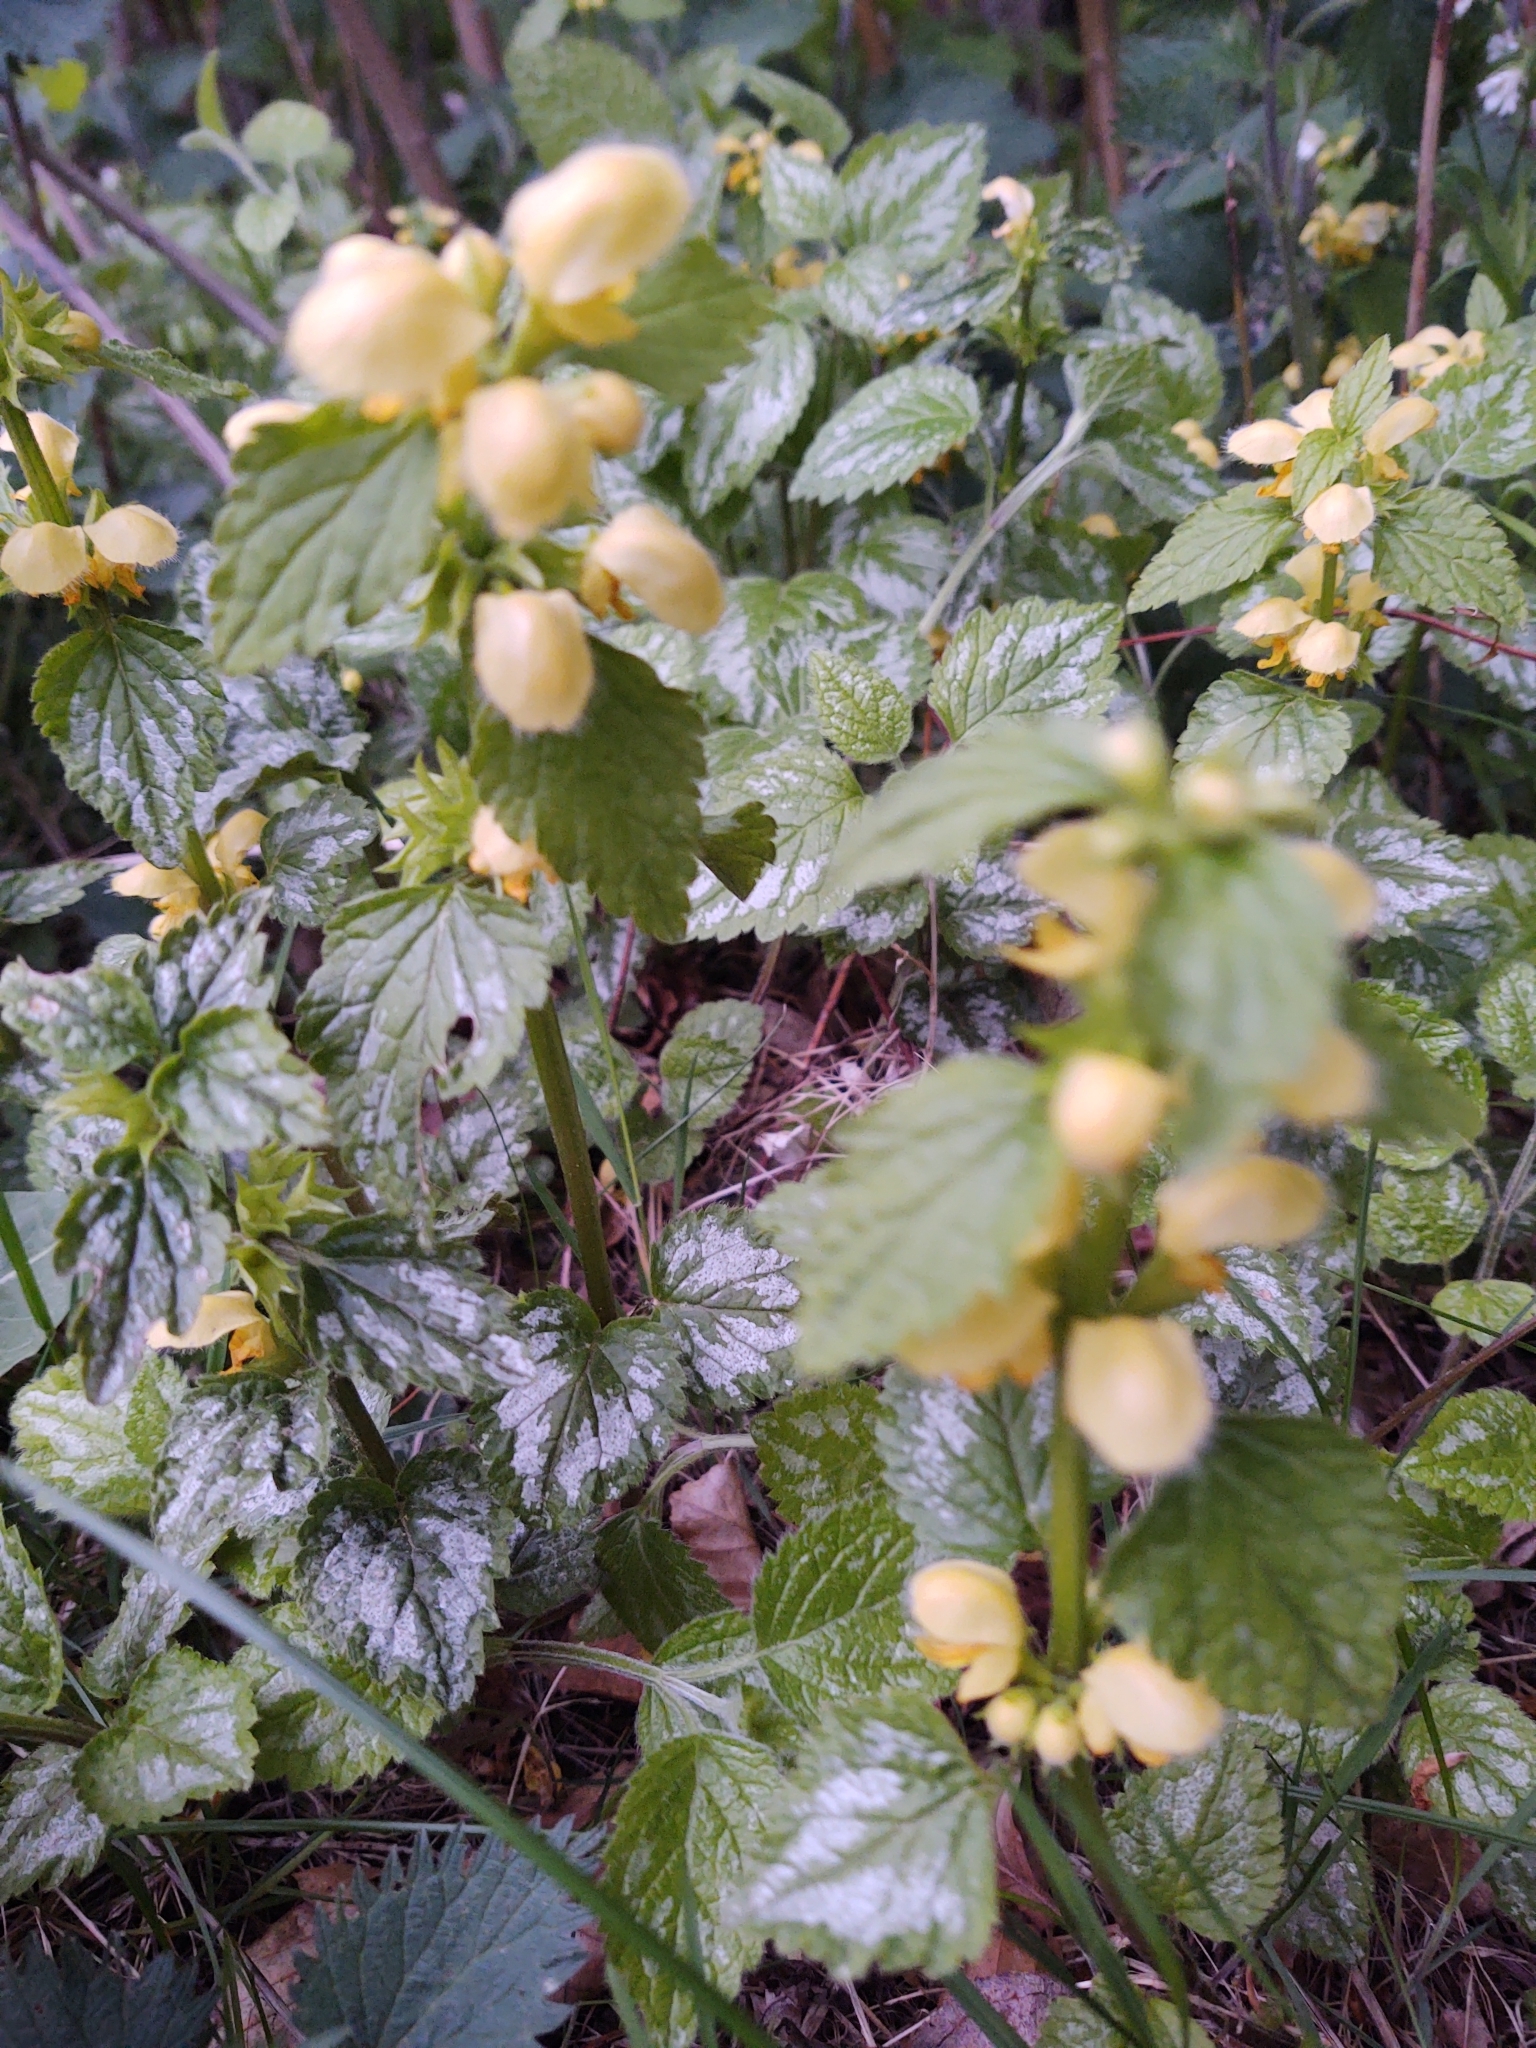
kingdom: Plantae
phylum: Tracheophyta
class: Magnoliopsida
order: Lamiales
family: Lamiaceae
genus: Lamium
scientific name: Lamium galeobdolon
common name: Yellow archangel
